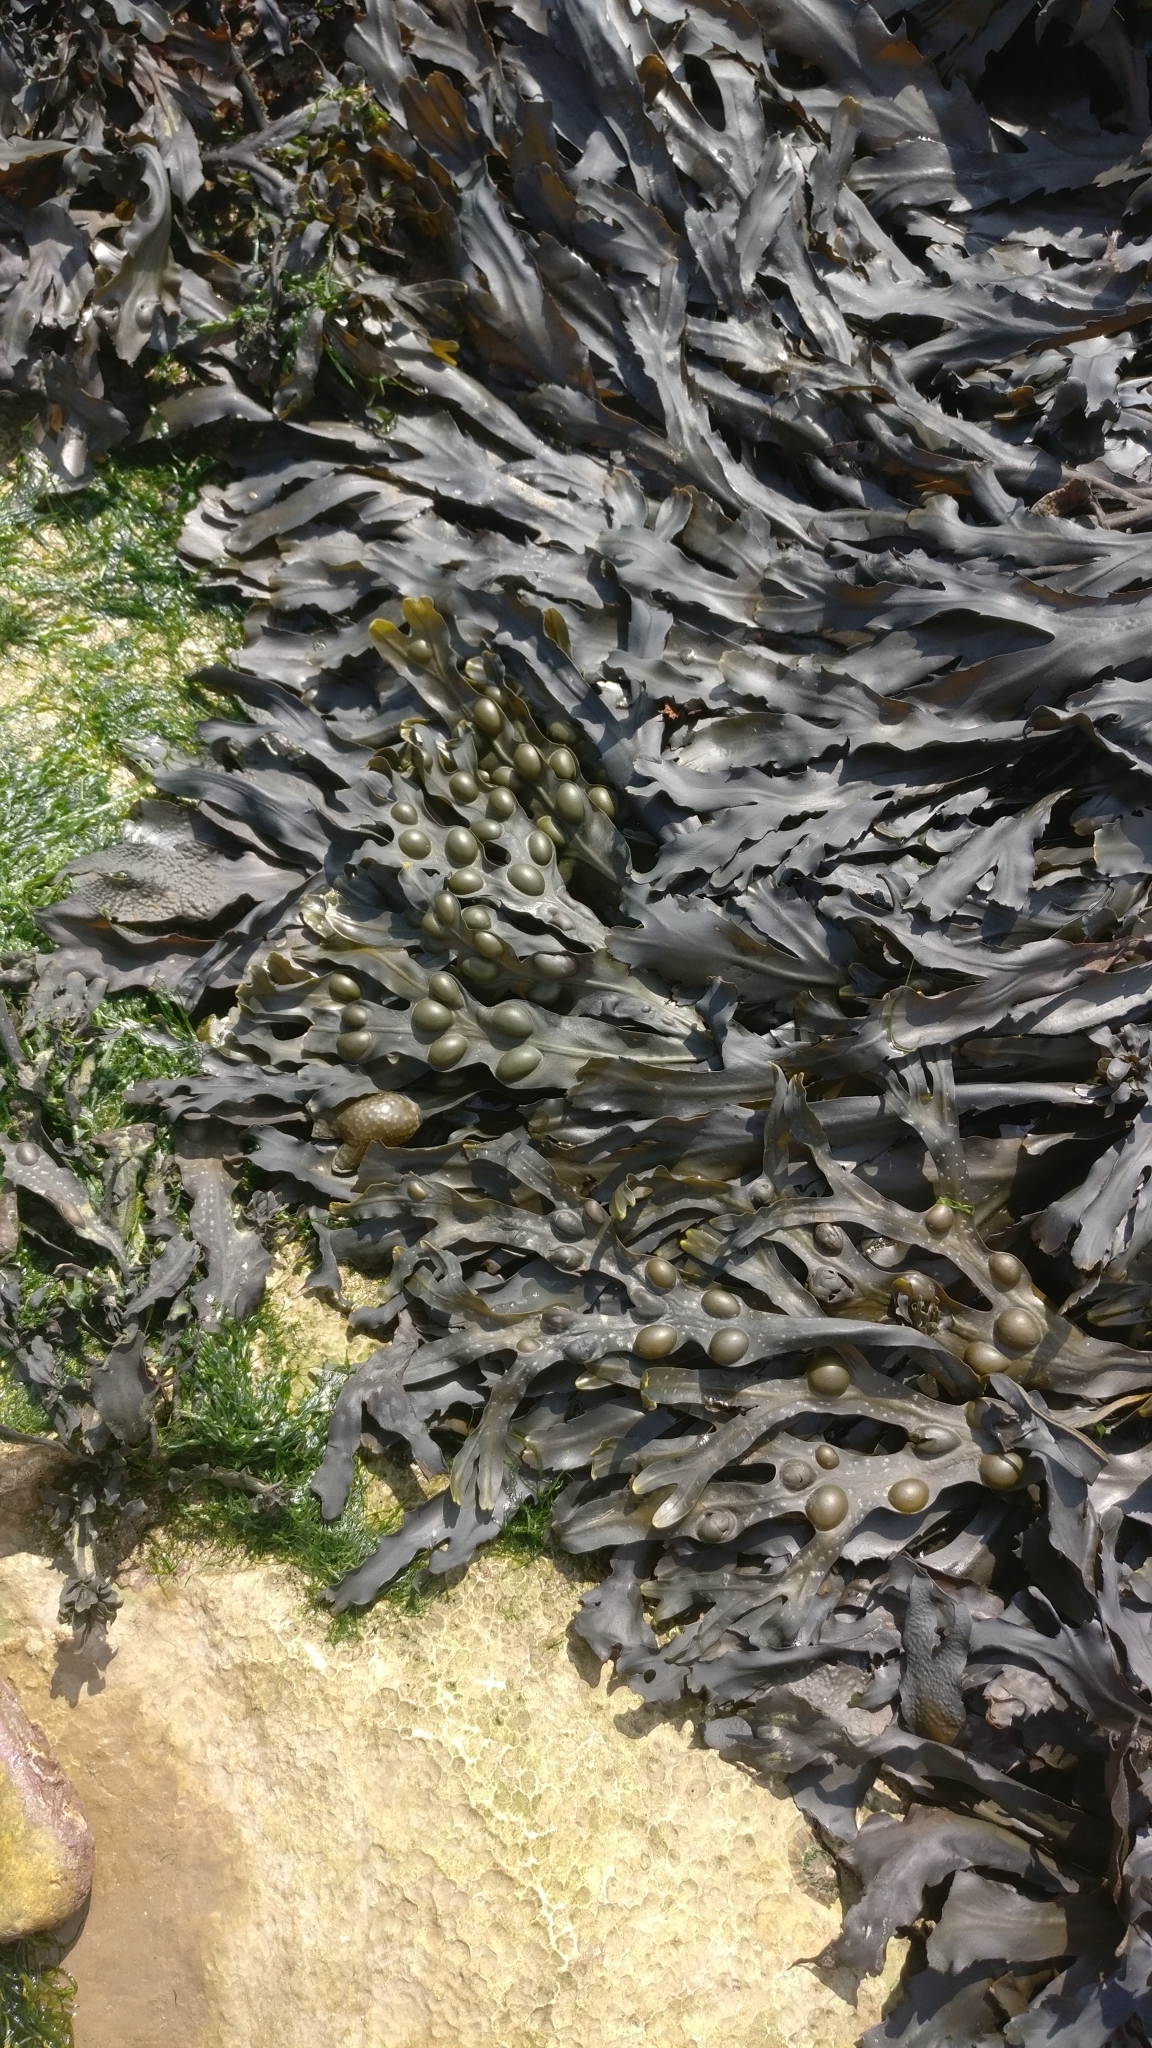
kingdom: Chromista
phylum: Ochrophyta
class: Phaeophyceae
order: Fucales
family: Fucaceae
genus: Fucus
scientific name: Fucus vesiculosus
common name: Bladder wrack
